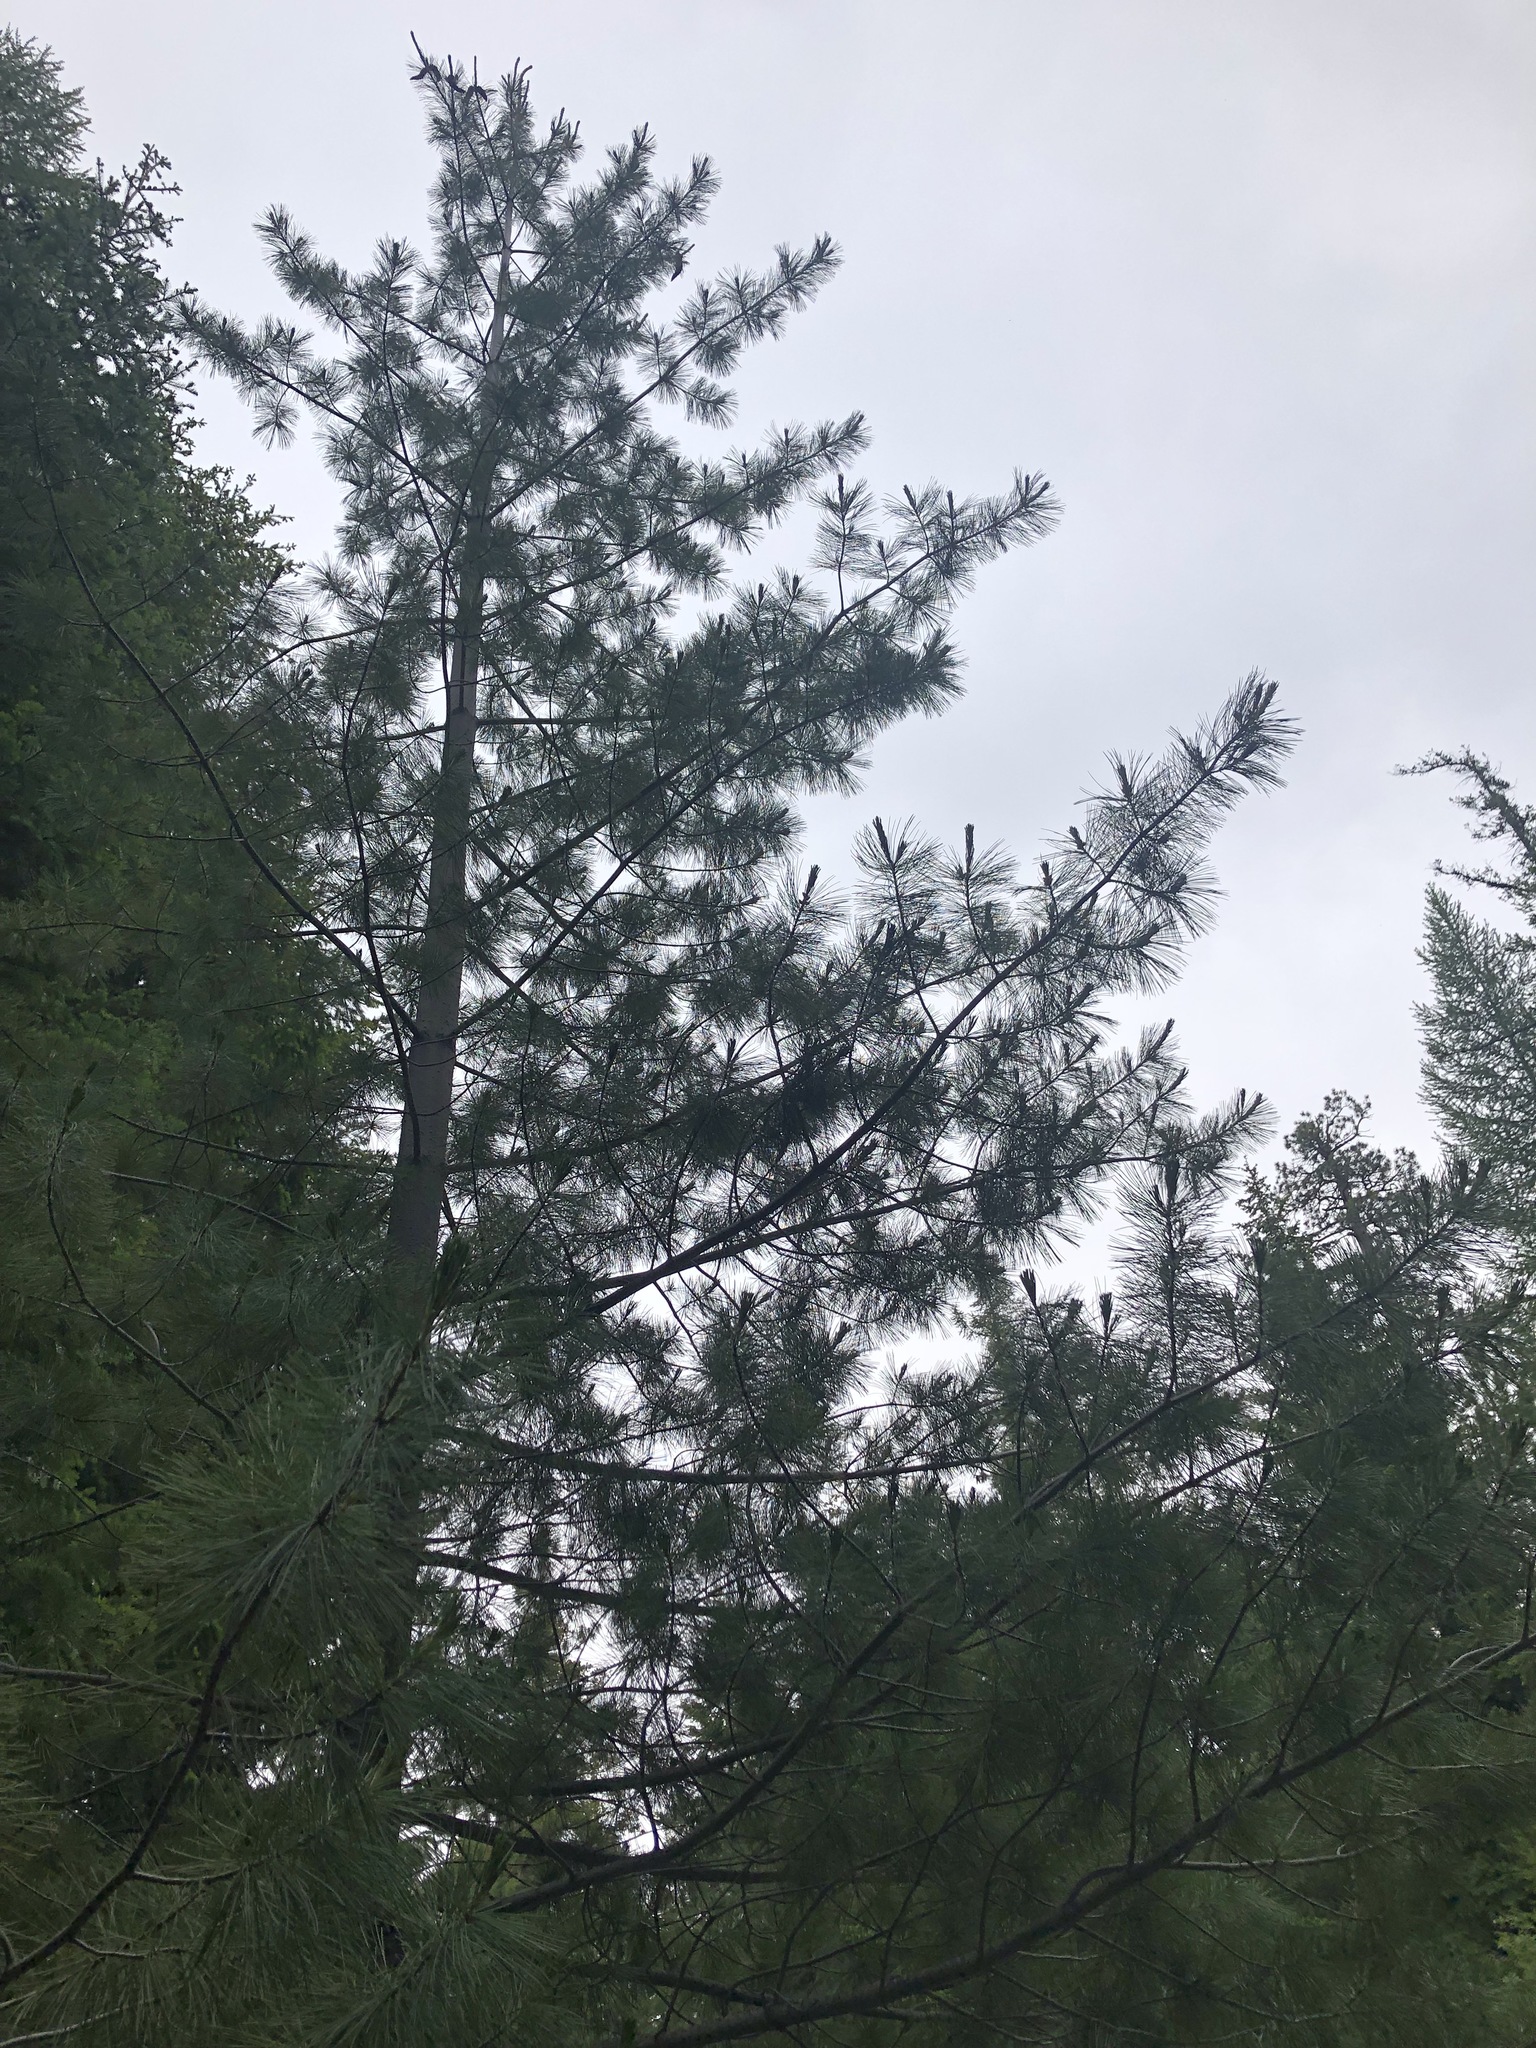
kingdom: Plantae
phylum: Tracheophyta
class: Pinopsida
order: Pinales
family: Pinaceae
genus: Pinus
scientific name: Pinus monticola
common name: Western white pine
